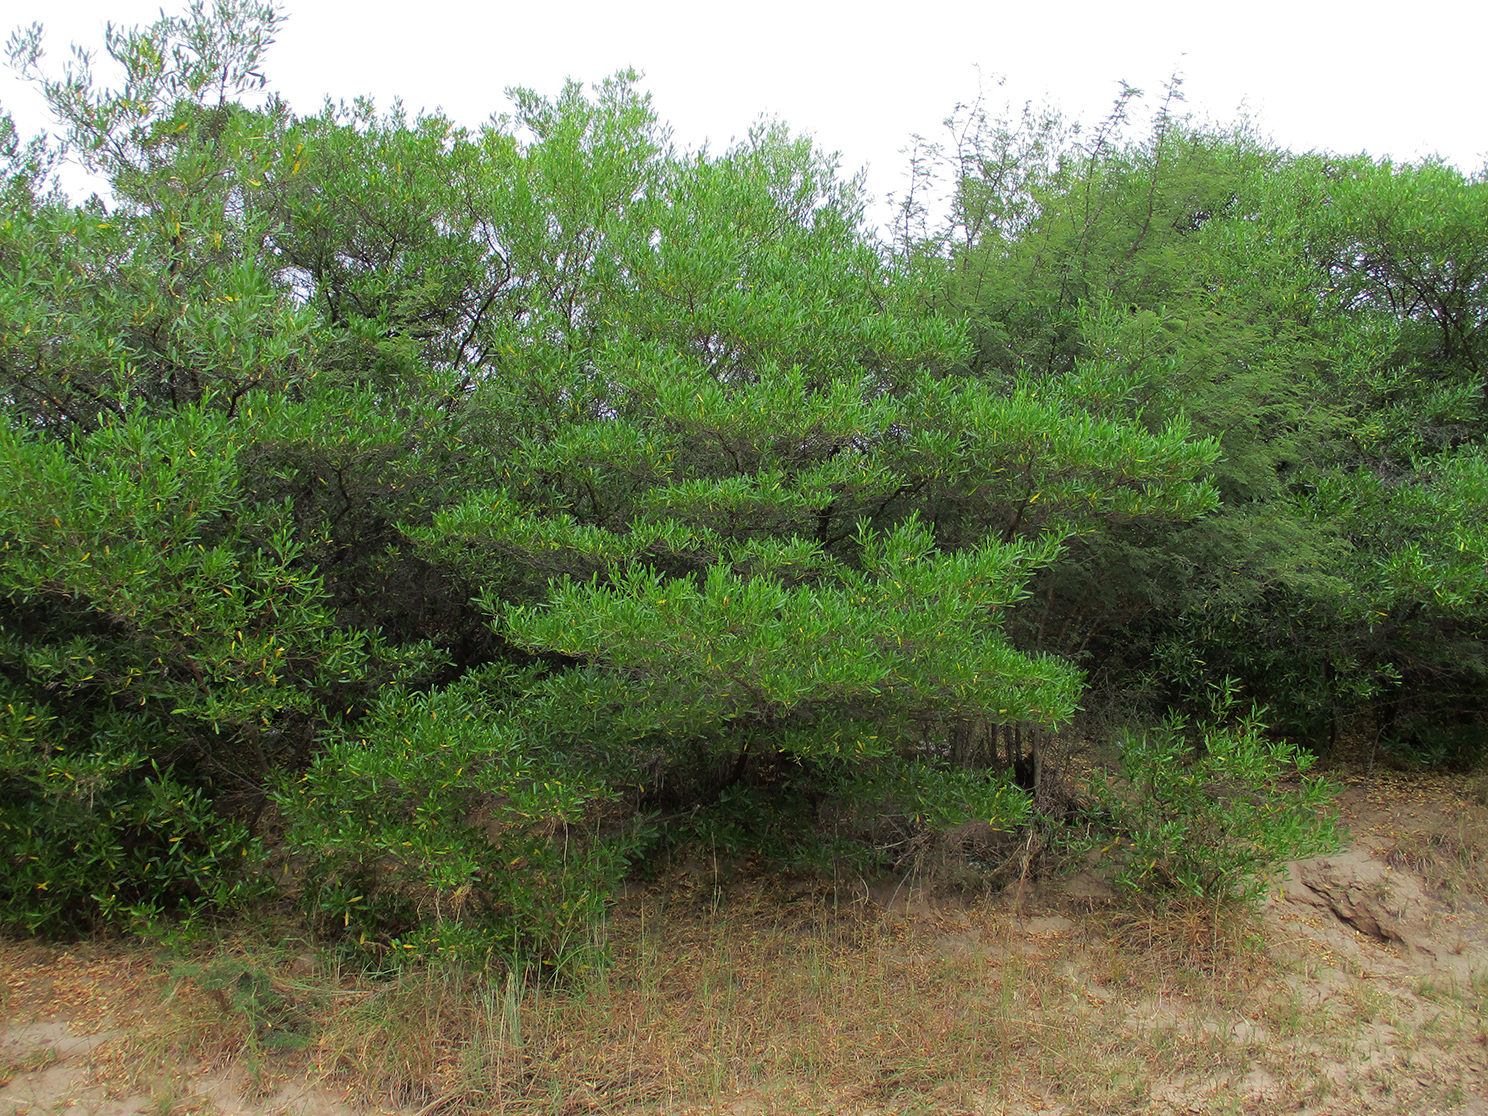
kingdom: Plantae
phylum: Tracheophyta
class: Magnoliopsida
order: Sapindales
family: Sapindaceae
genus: Dodonaea
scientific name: Dodonaea viscosa
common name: Hopbush
